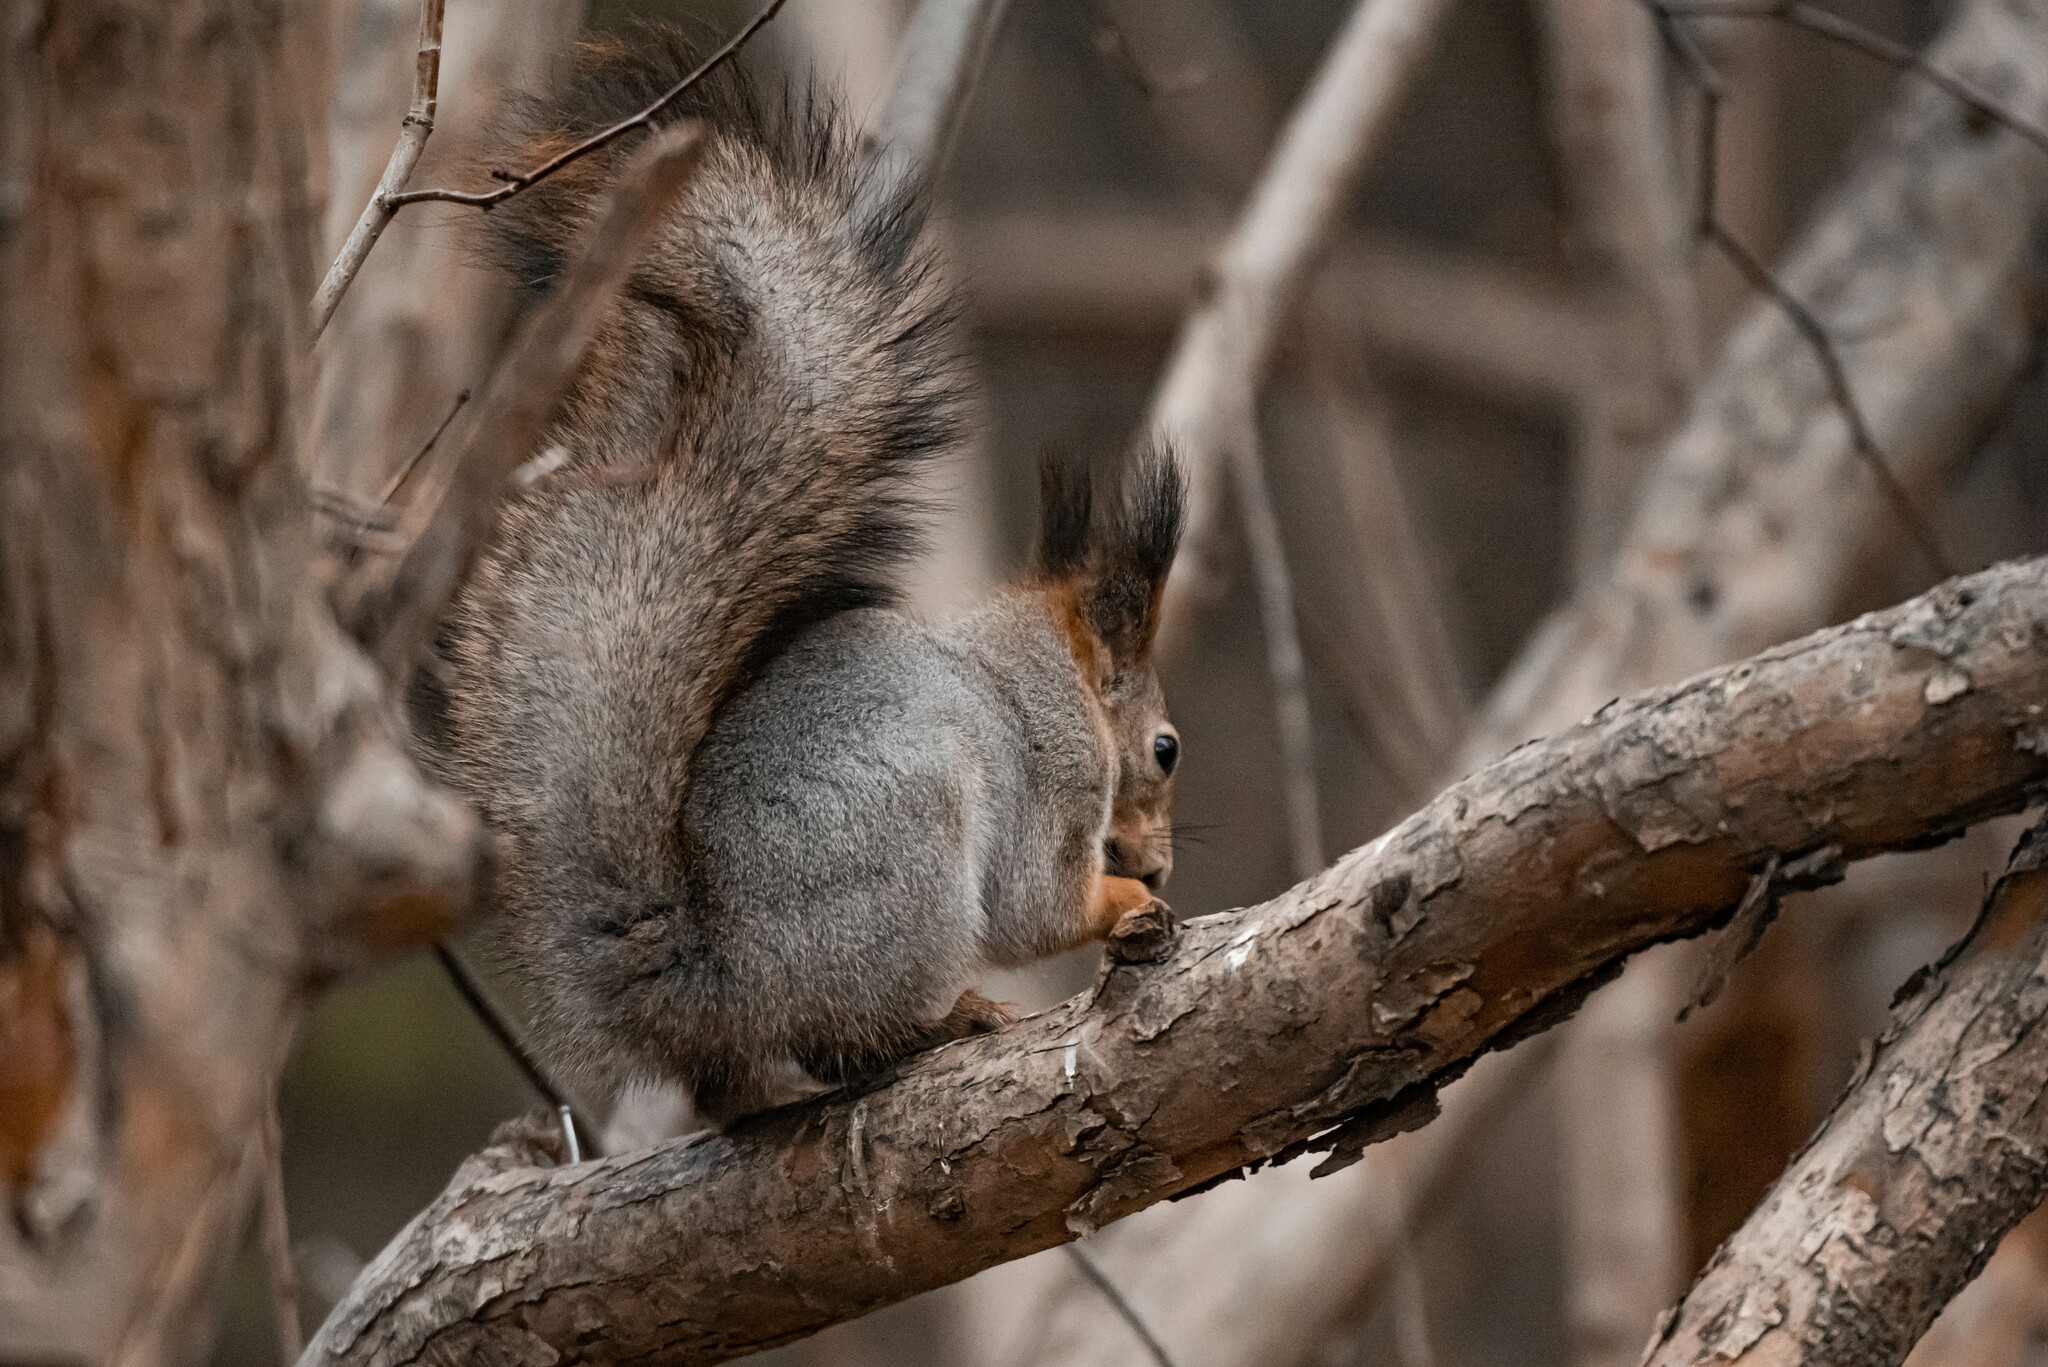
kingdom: Animalia
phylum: Chordata
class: Mammalia
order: Rodentia
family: Sciuridae
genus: Sciurus
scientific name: Sciurus vulgaris
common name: Eurasian red squirrel
